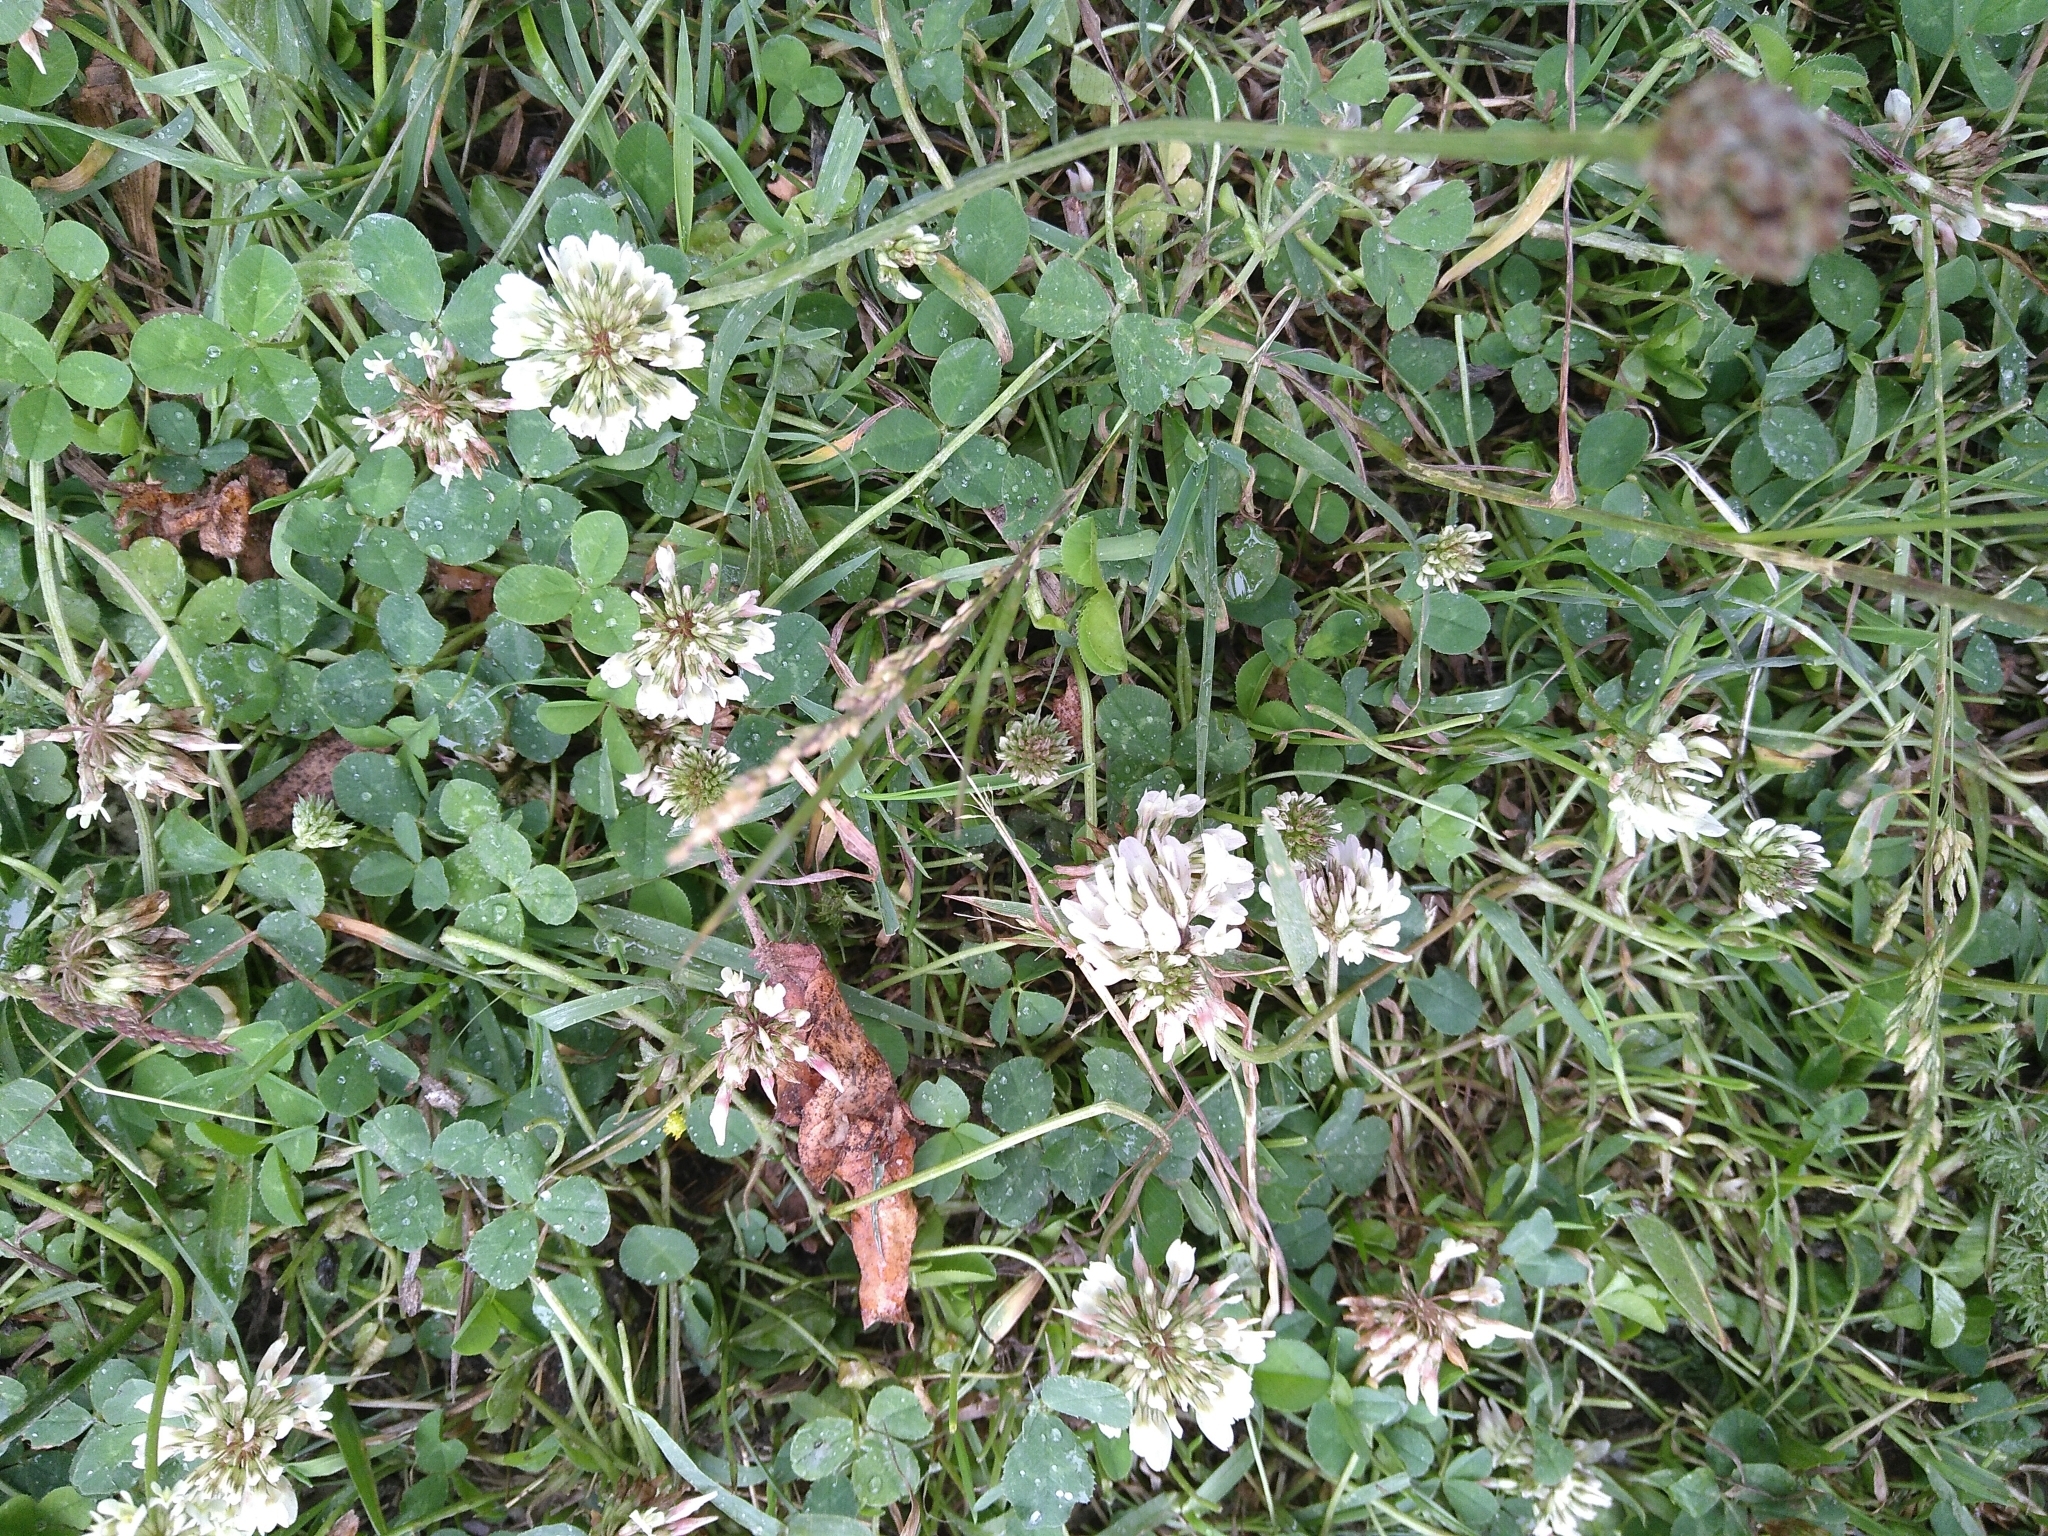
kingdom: Plantae
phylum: Tracheophyta
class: Magnoliopsida
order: Fabales
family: Fabaceae
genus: Trifolium
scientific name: Trifolium repens
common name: White clover
